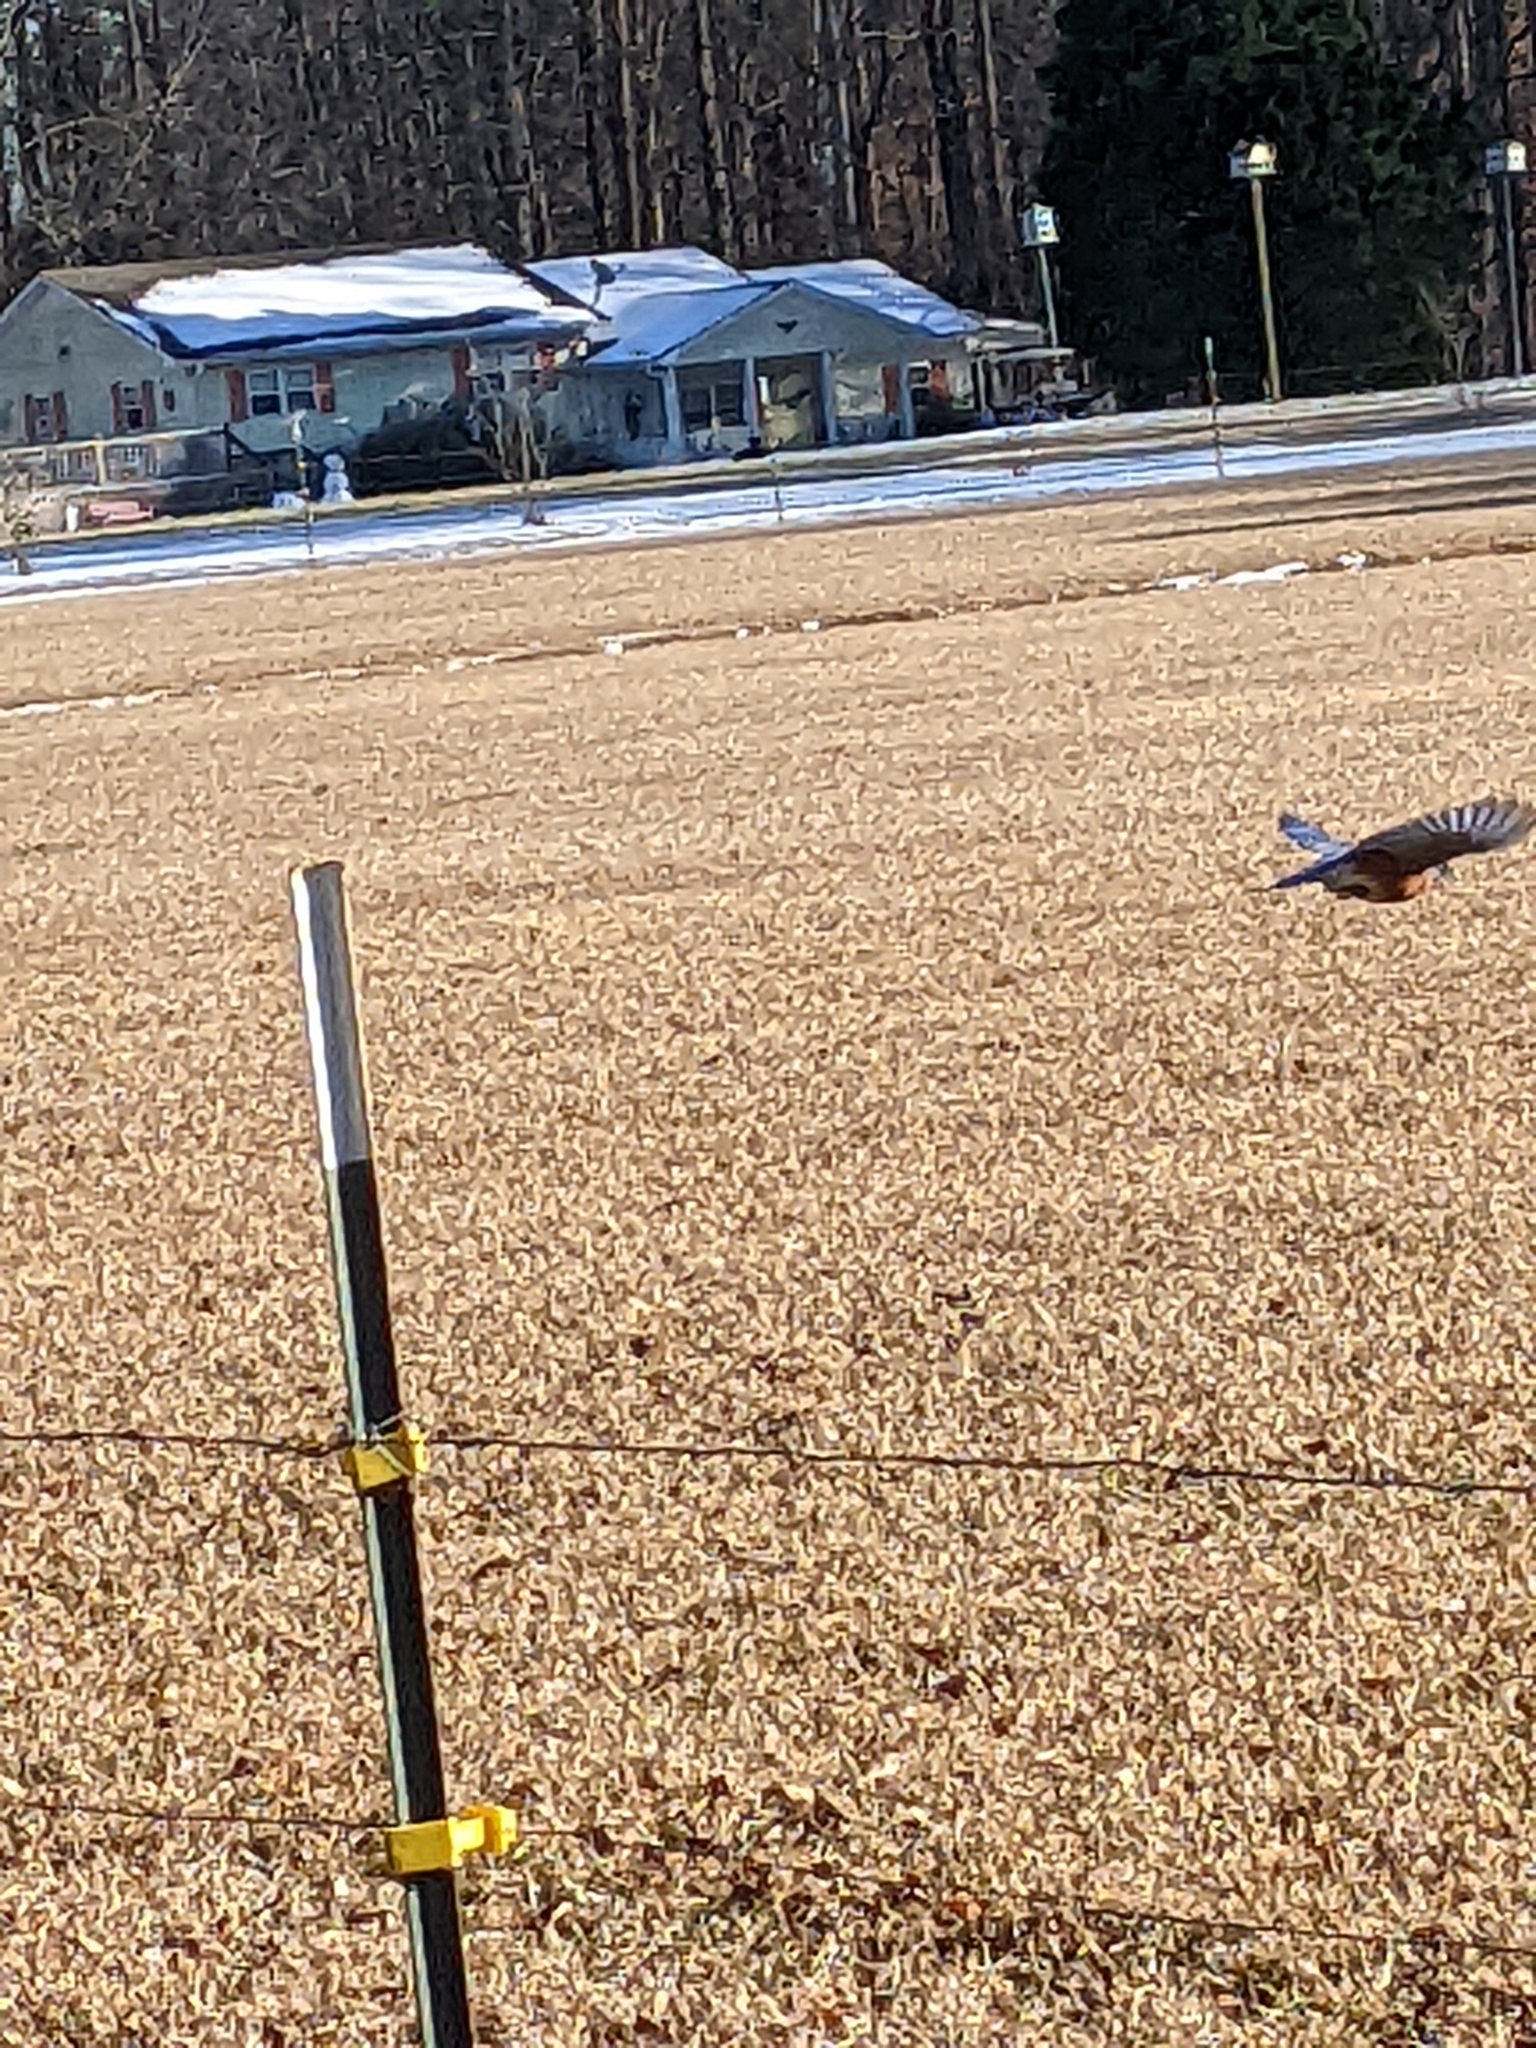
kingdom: Animalia
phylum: Chordata
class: Aves
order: Passeriformes
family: Turdidae
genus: Sialia
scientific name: Sialia sialis
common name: Eastern bluebird
